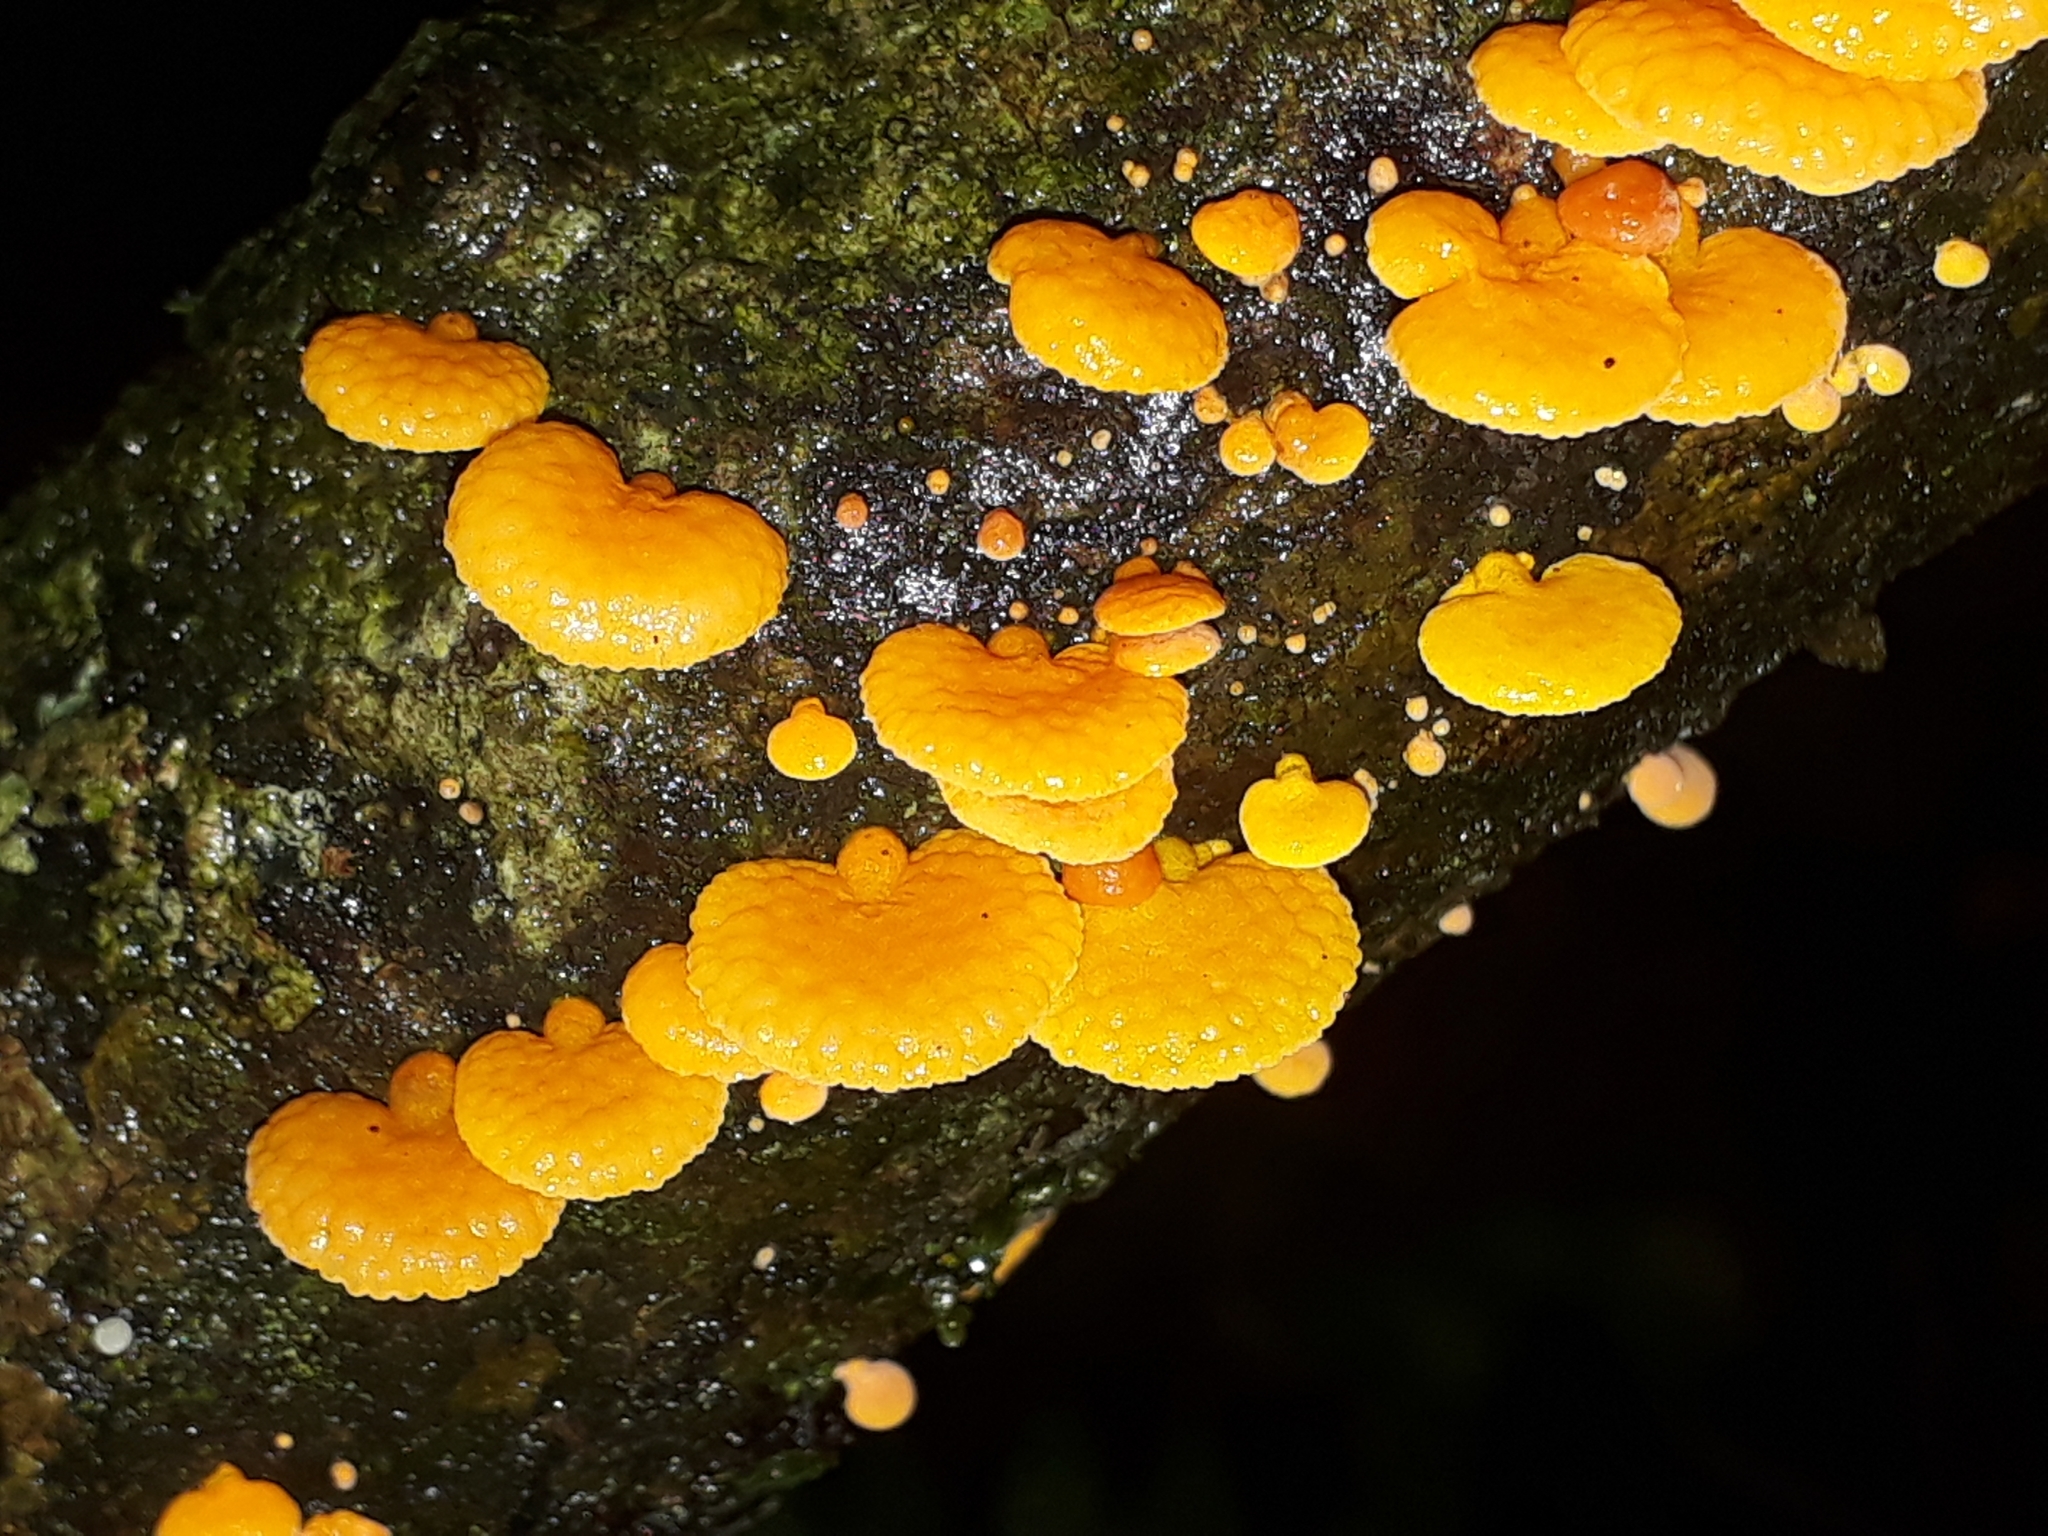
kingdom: Fungi
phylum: Basidiomycota
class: Agaricomycetes
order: Agaricales
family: Mycenaceae
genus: Favolaschia
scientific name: Favolaschia claudopus
